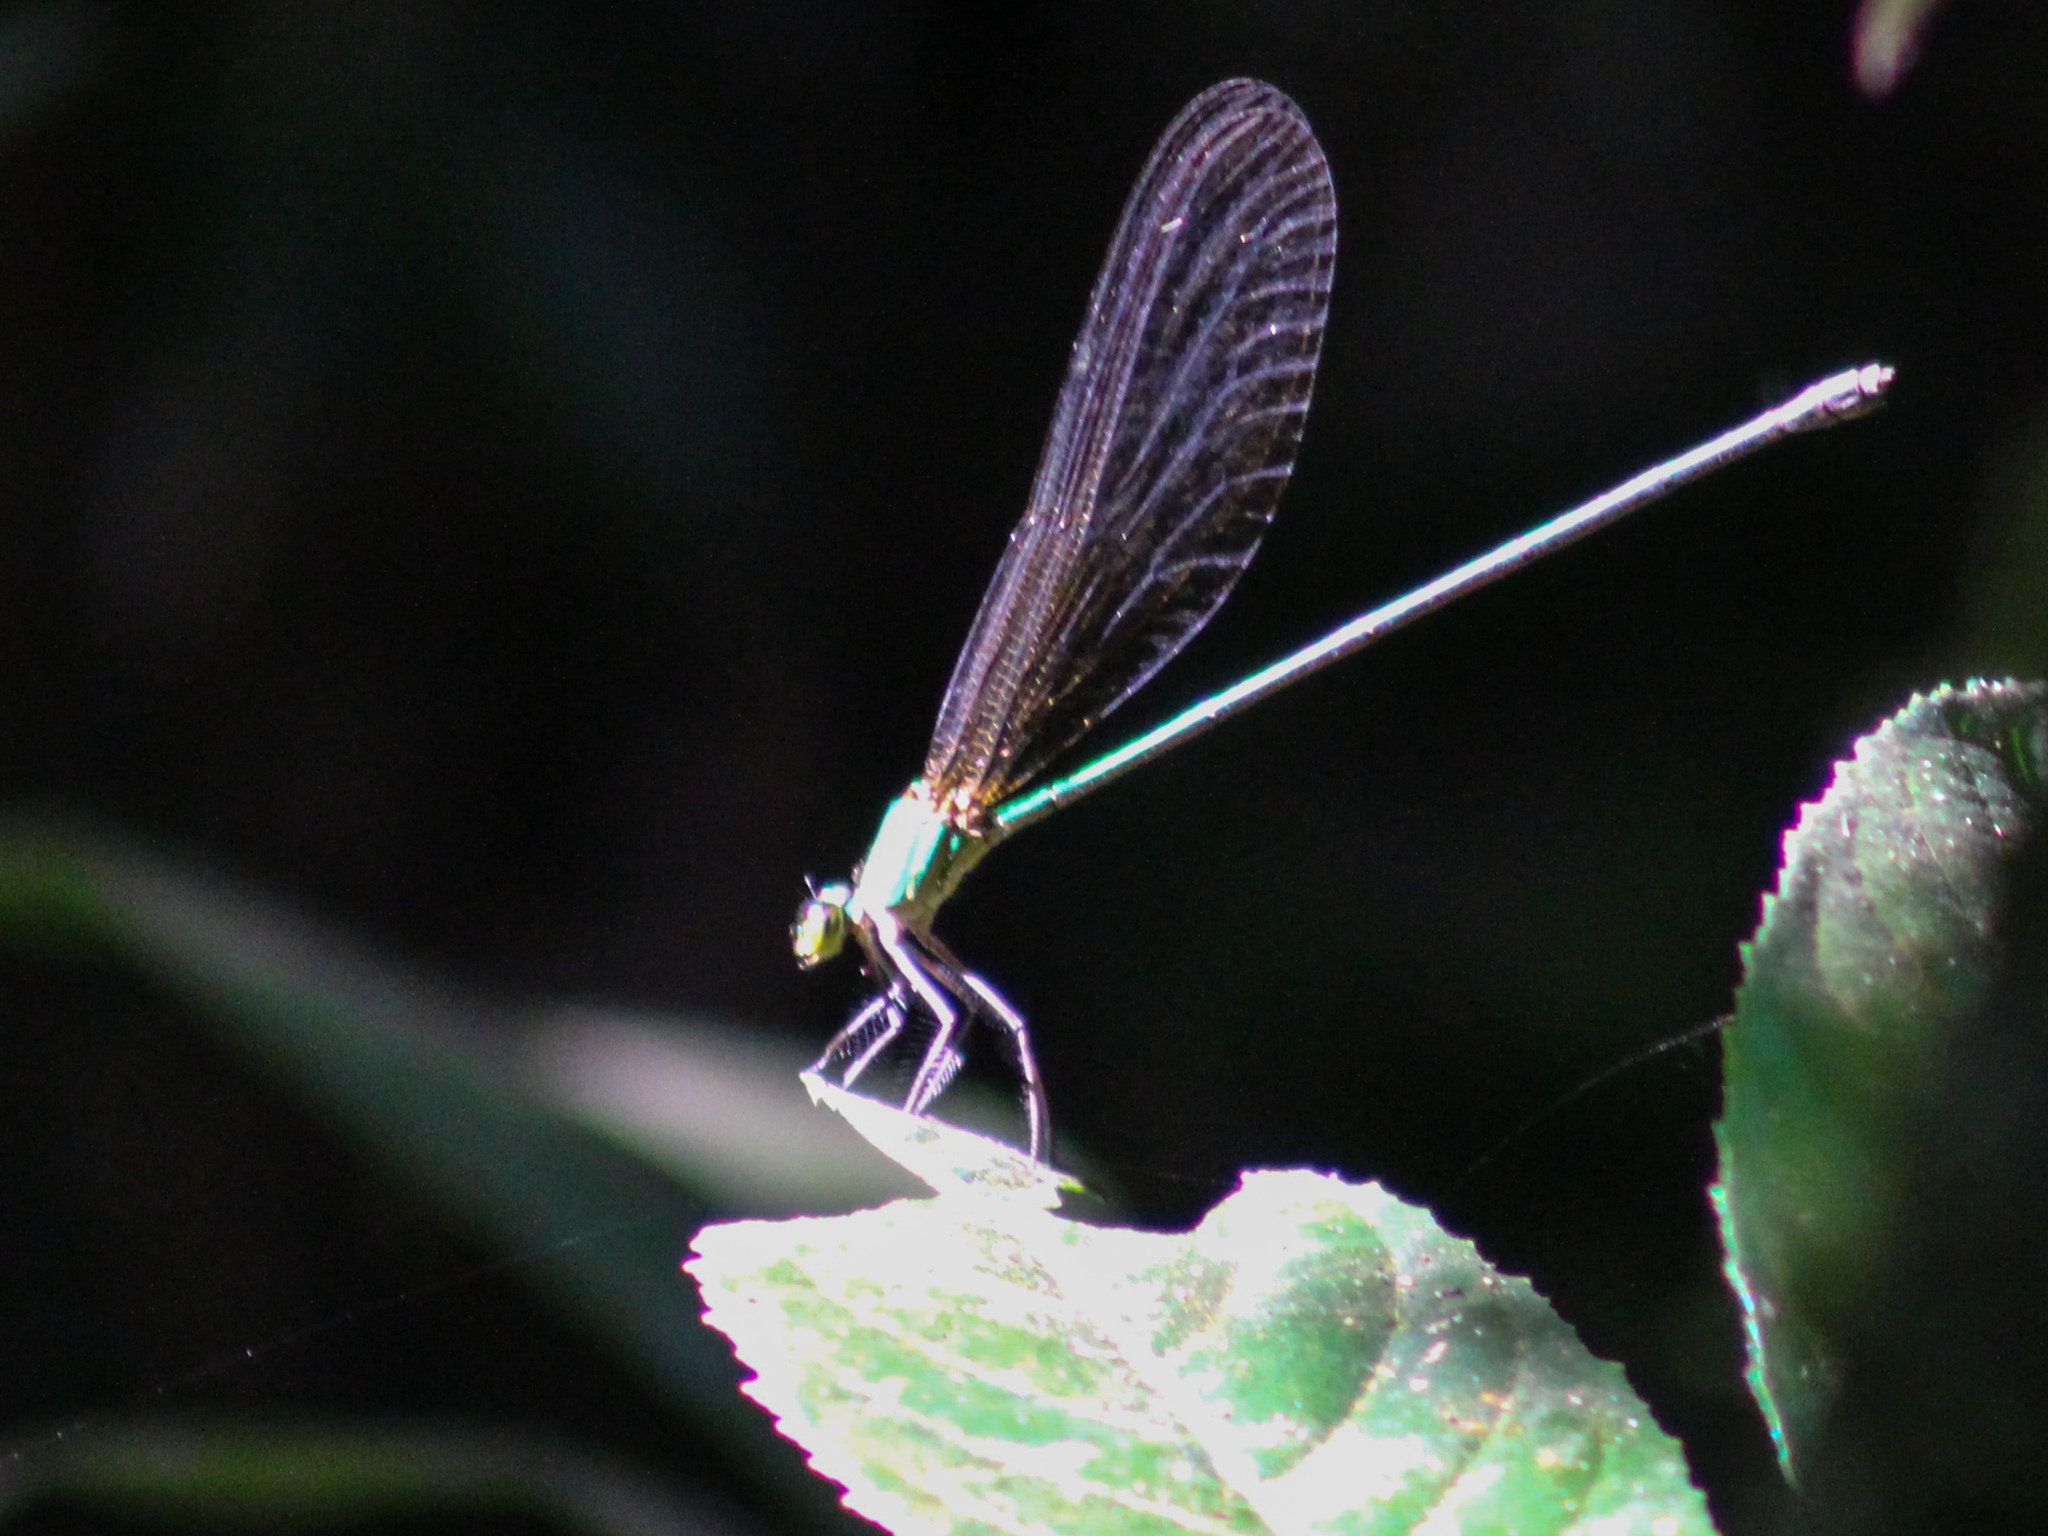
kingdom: Animalia
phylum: Arthropoda
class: Insecta
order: Odonata
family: Calopterygidae
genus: Vestalis
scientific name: Vestalis gracilis
